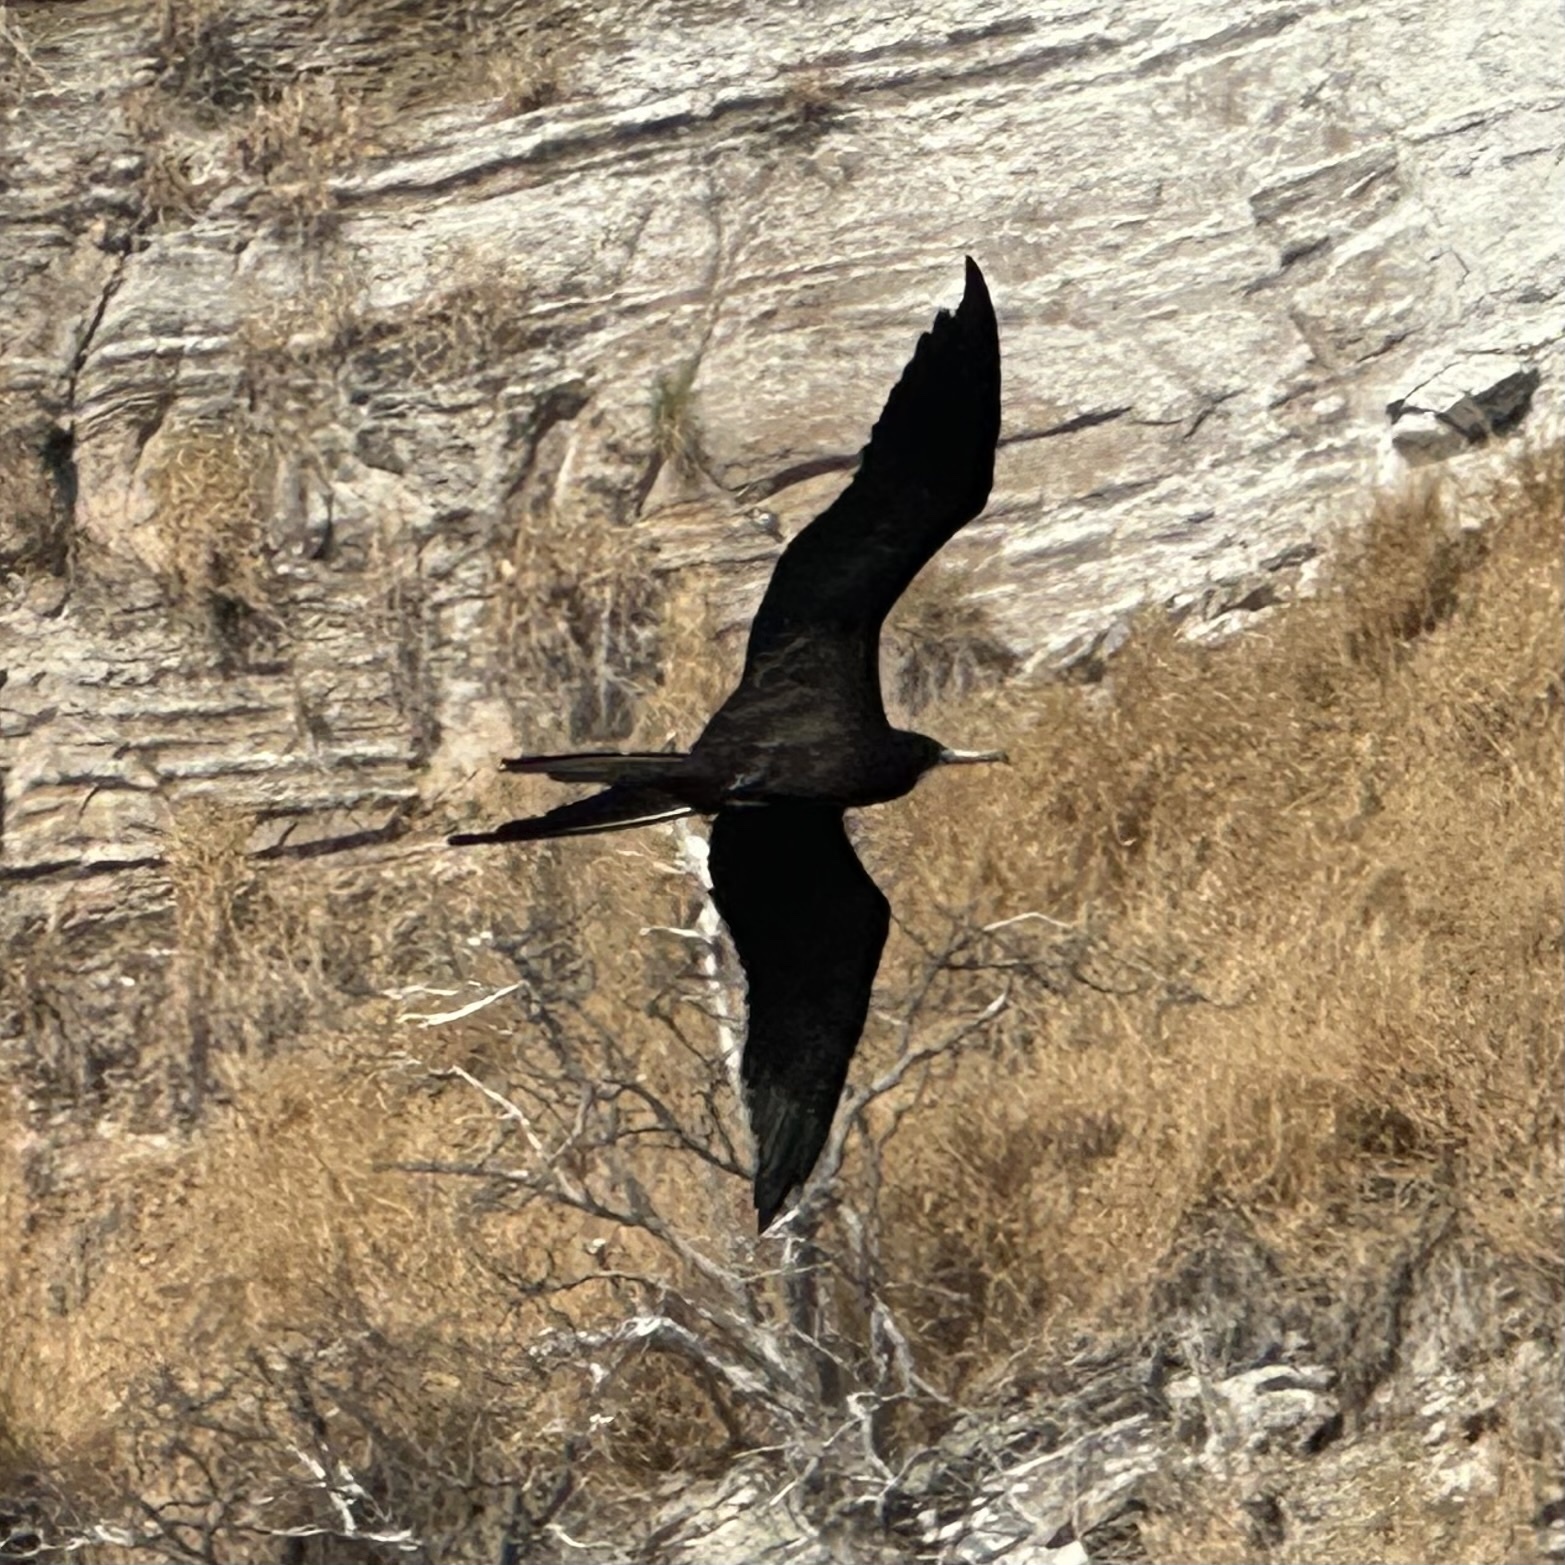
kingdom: Animalia
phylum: Chordata
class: Aves
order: Suliformes
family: Fregatidae
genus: Fregata
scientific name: Fregata magnificens
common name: Magnificent frigatebird
